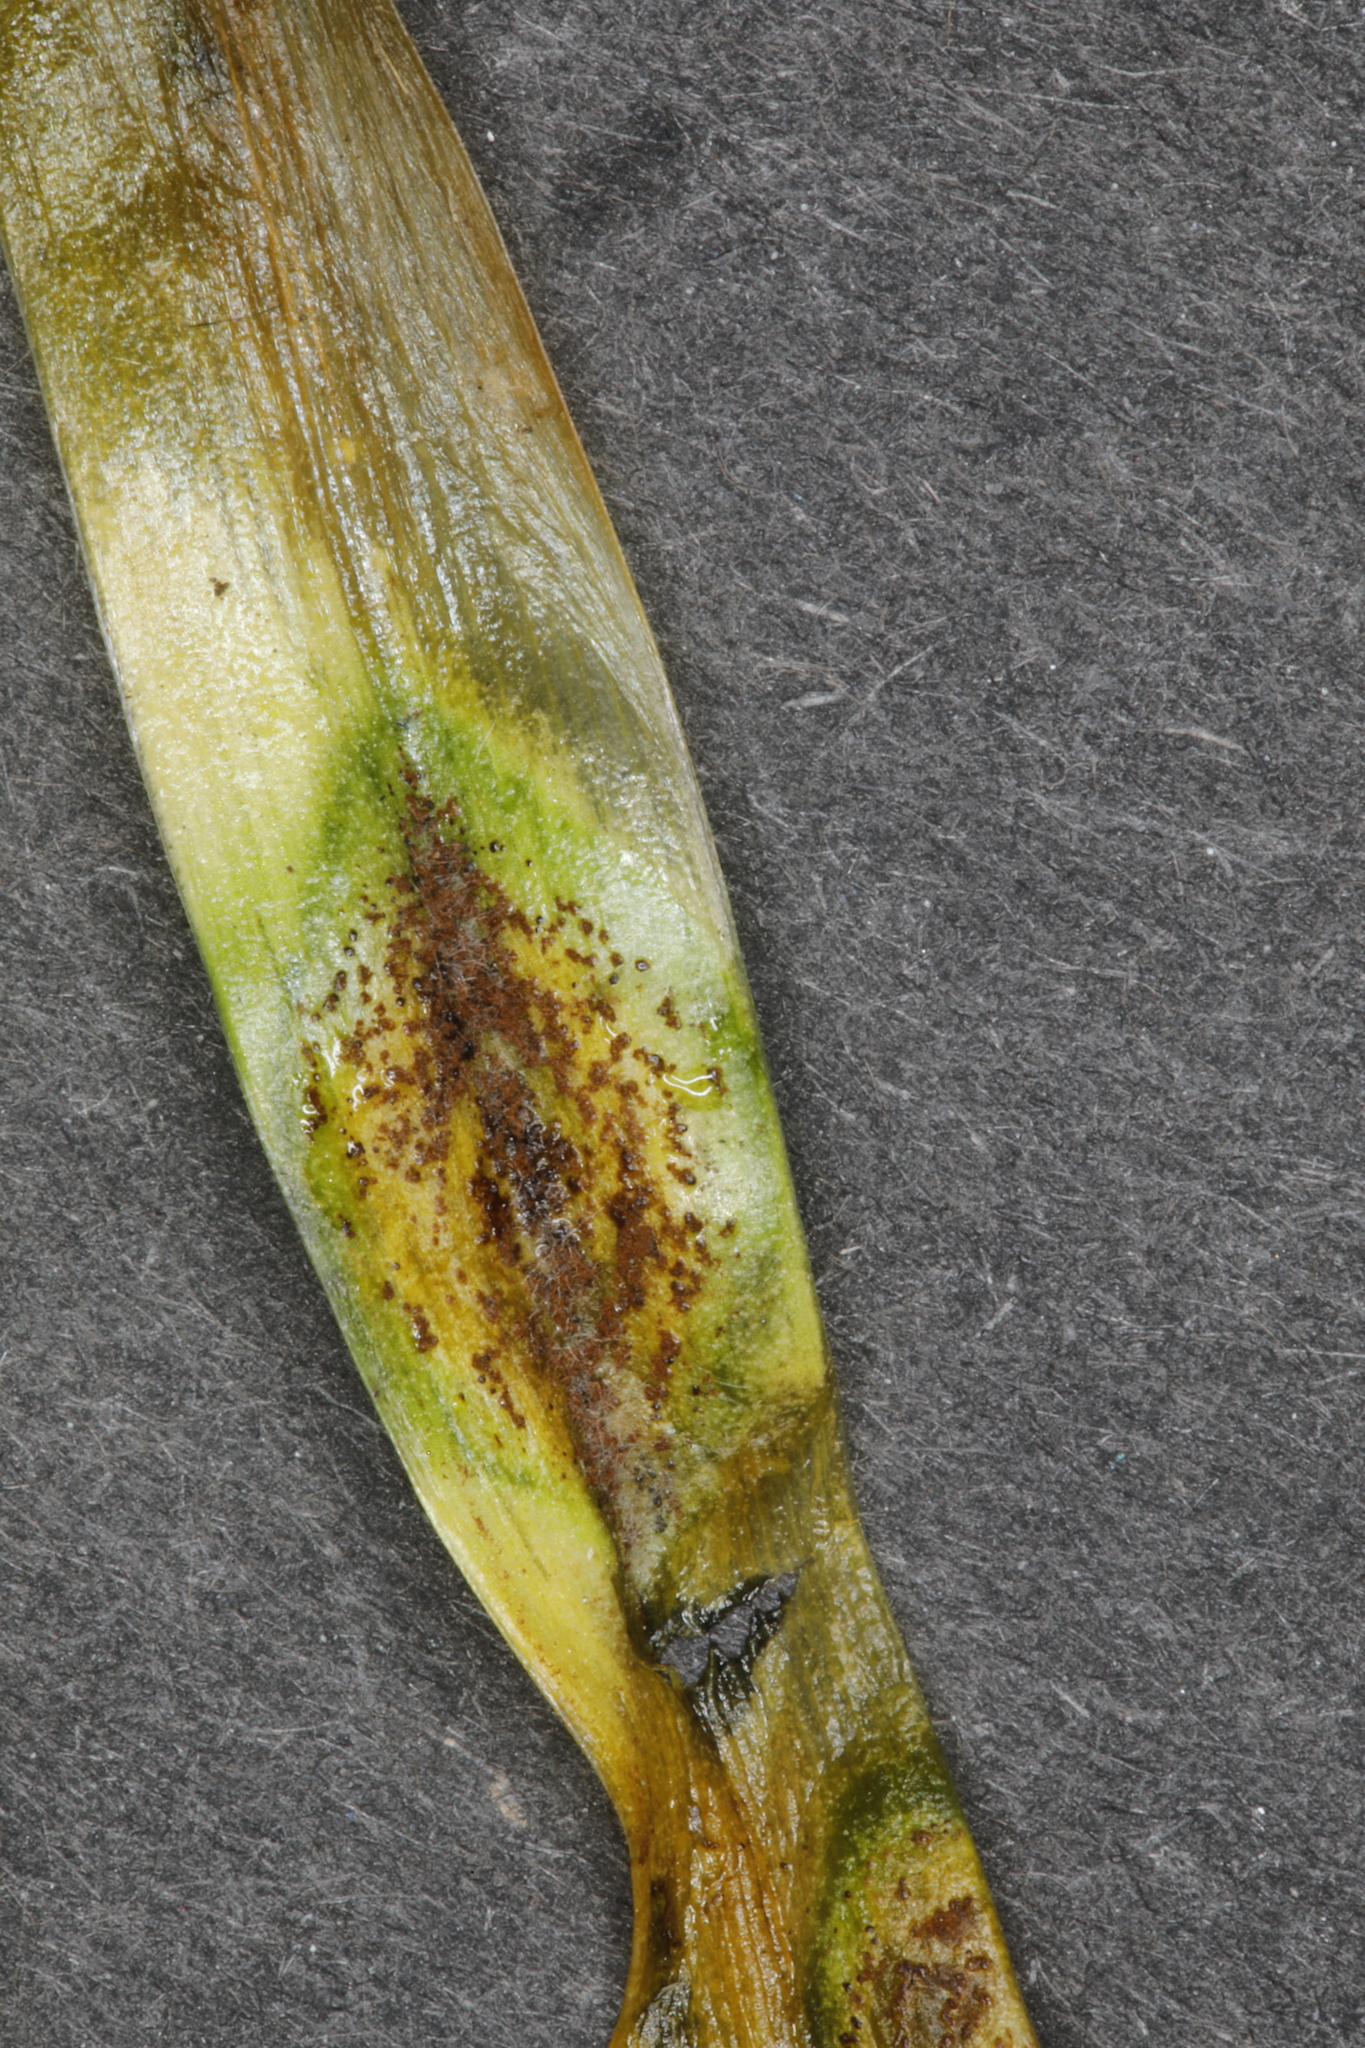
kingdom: Fungi
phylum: Basidiomycota
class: Pucciniomycetes
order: Pucciniales
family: Pucciniaceae
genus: Uromyces
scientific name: Uromyces hyacinthi
